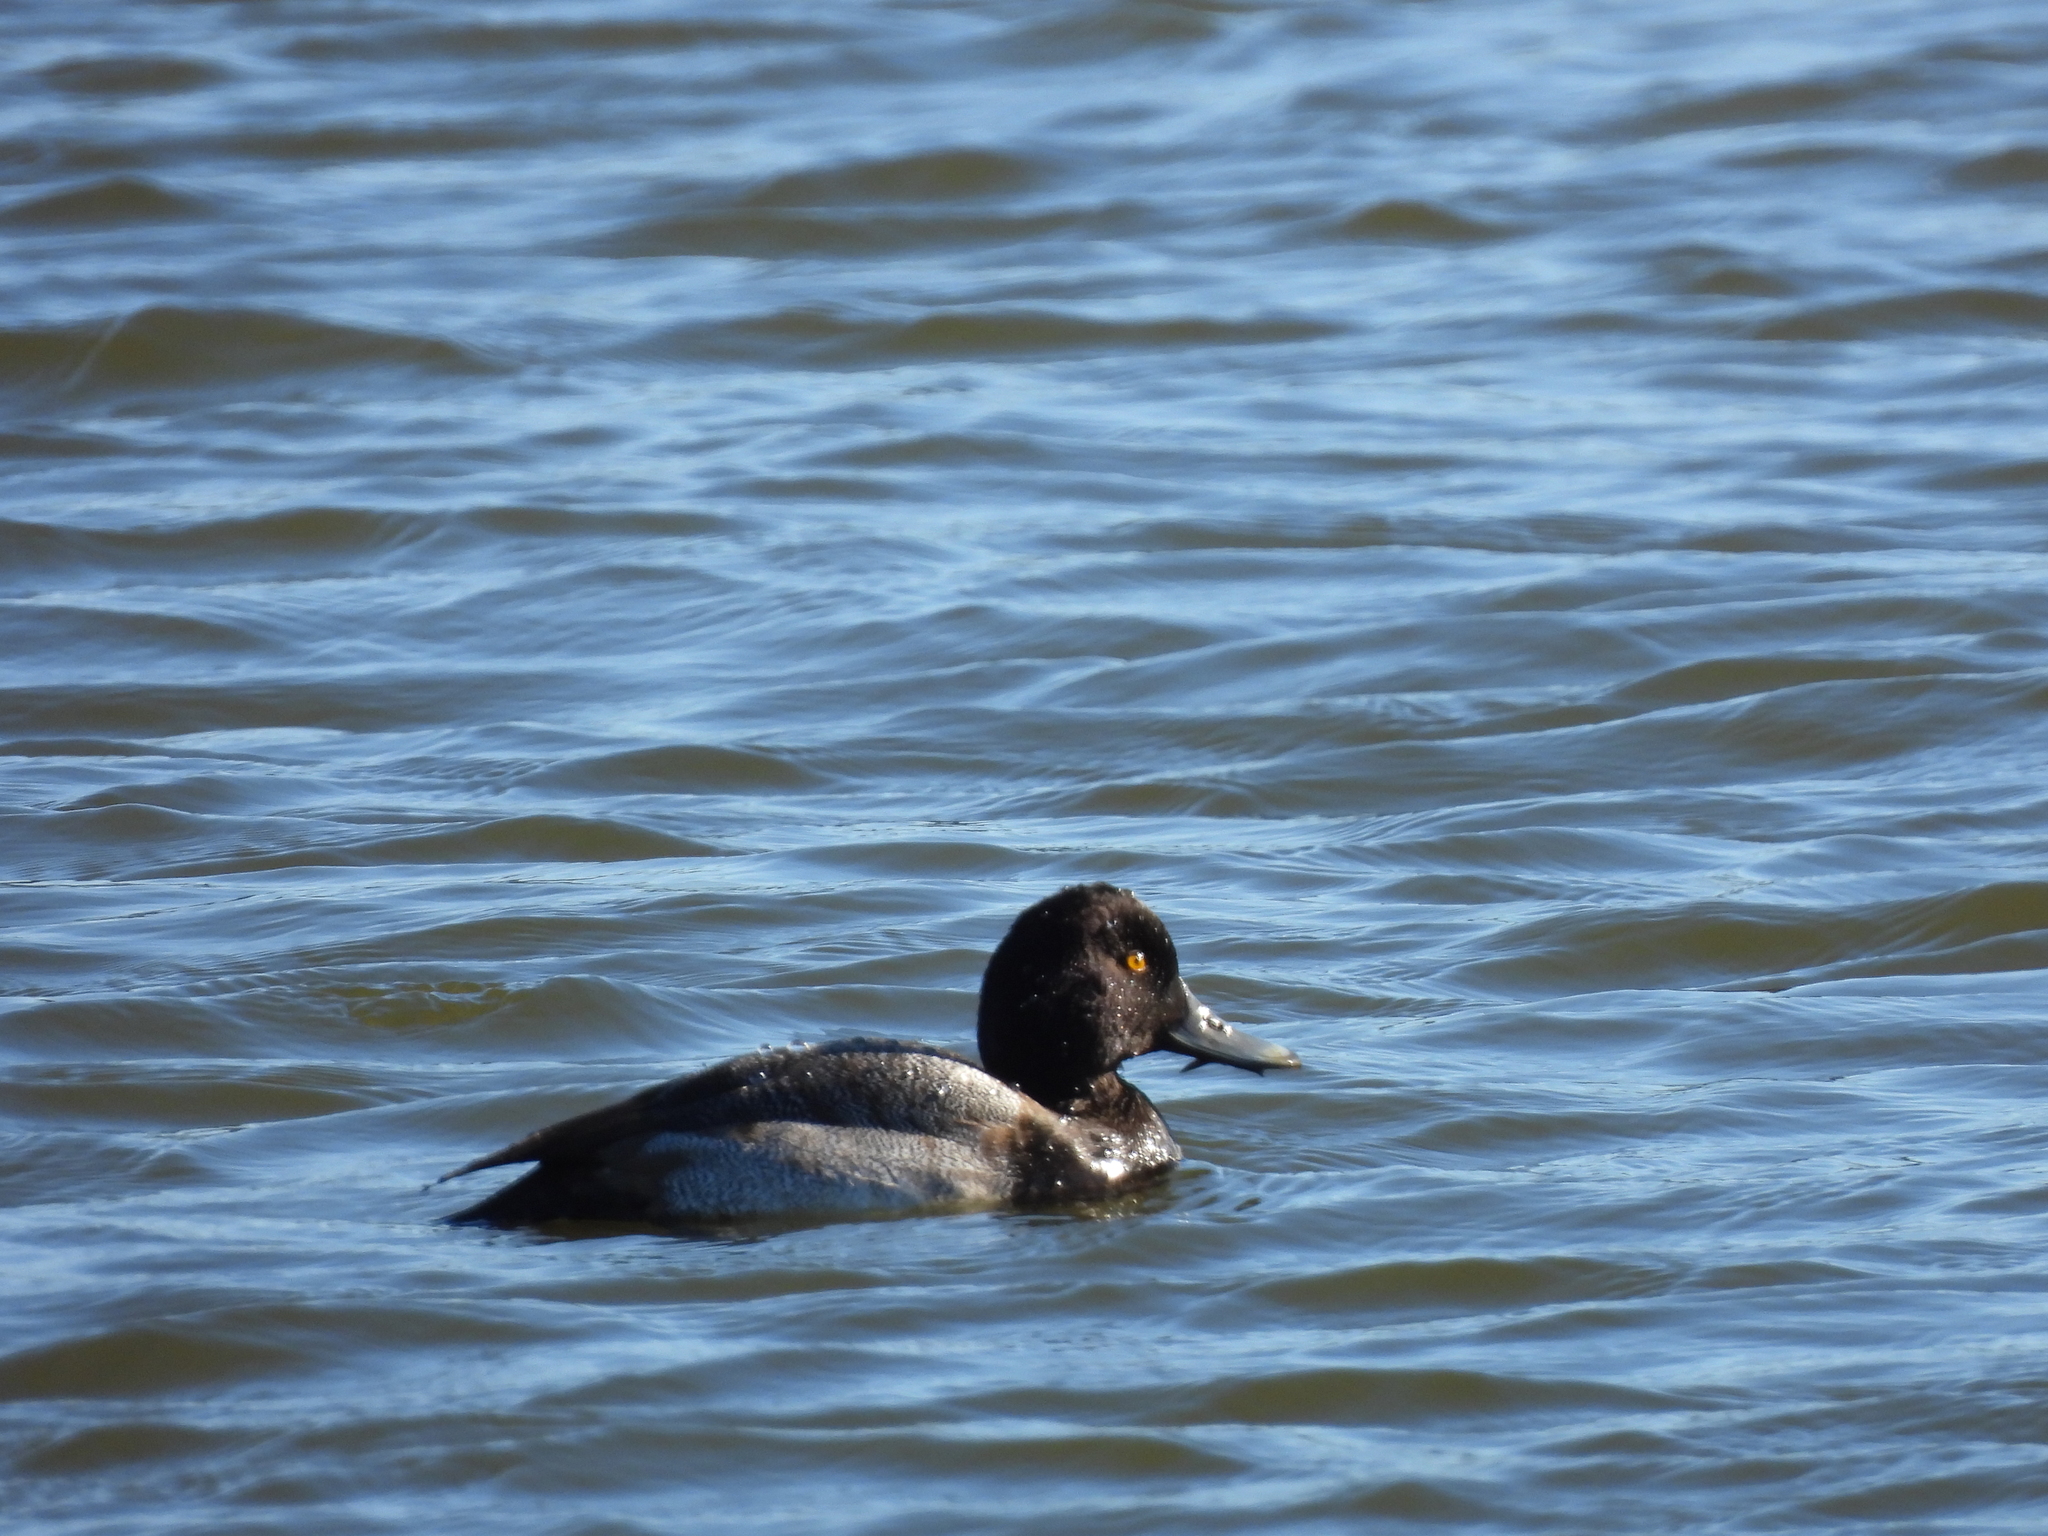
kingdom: Animalia
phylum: Chordata
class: Aves
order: Anseriformes
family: Anatidae
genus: Aythya
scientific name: Aythya affinis
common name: Lesser scaup
